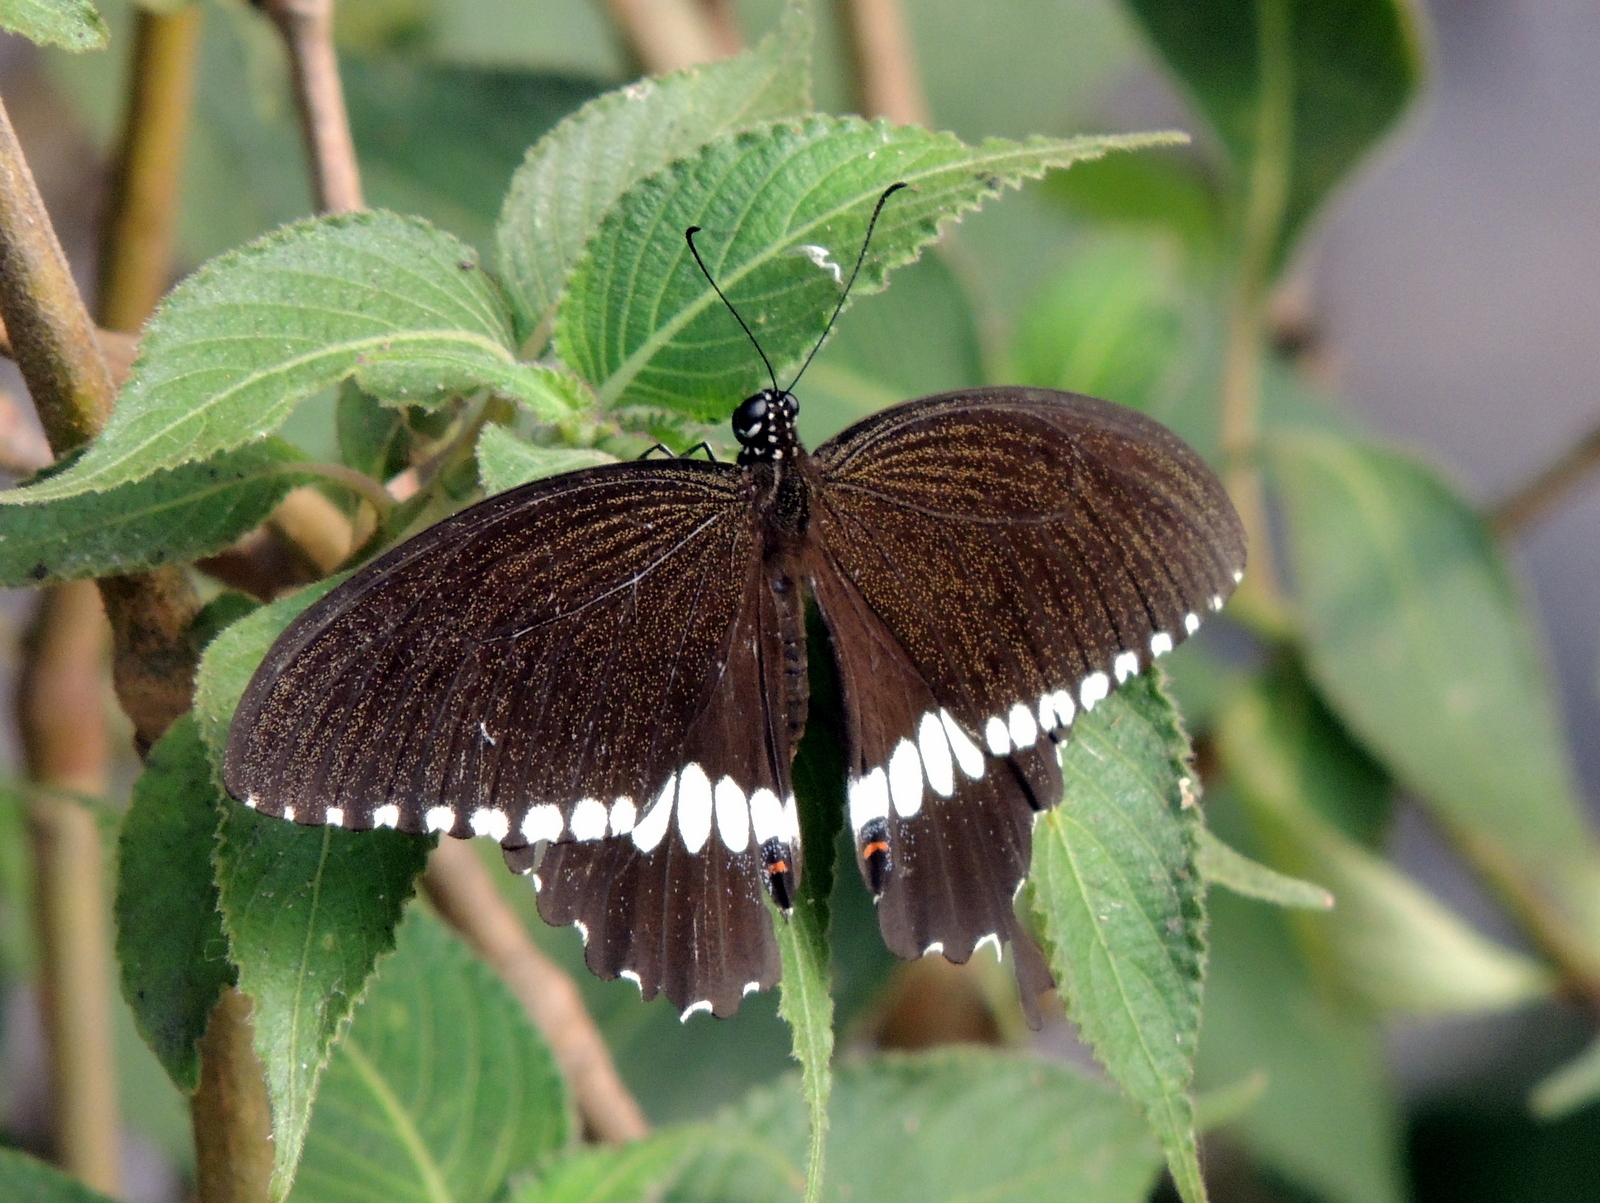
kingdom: Animalia
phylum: Arthropoda
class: Insecta
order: Lepidoptera
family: Papilionidae
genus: Papilio
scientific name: Papilio polytes
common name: Common mormon
